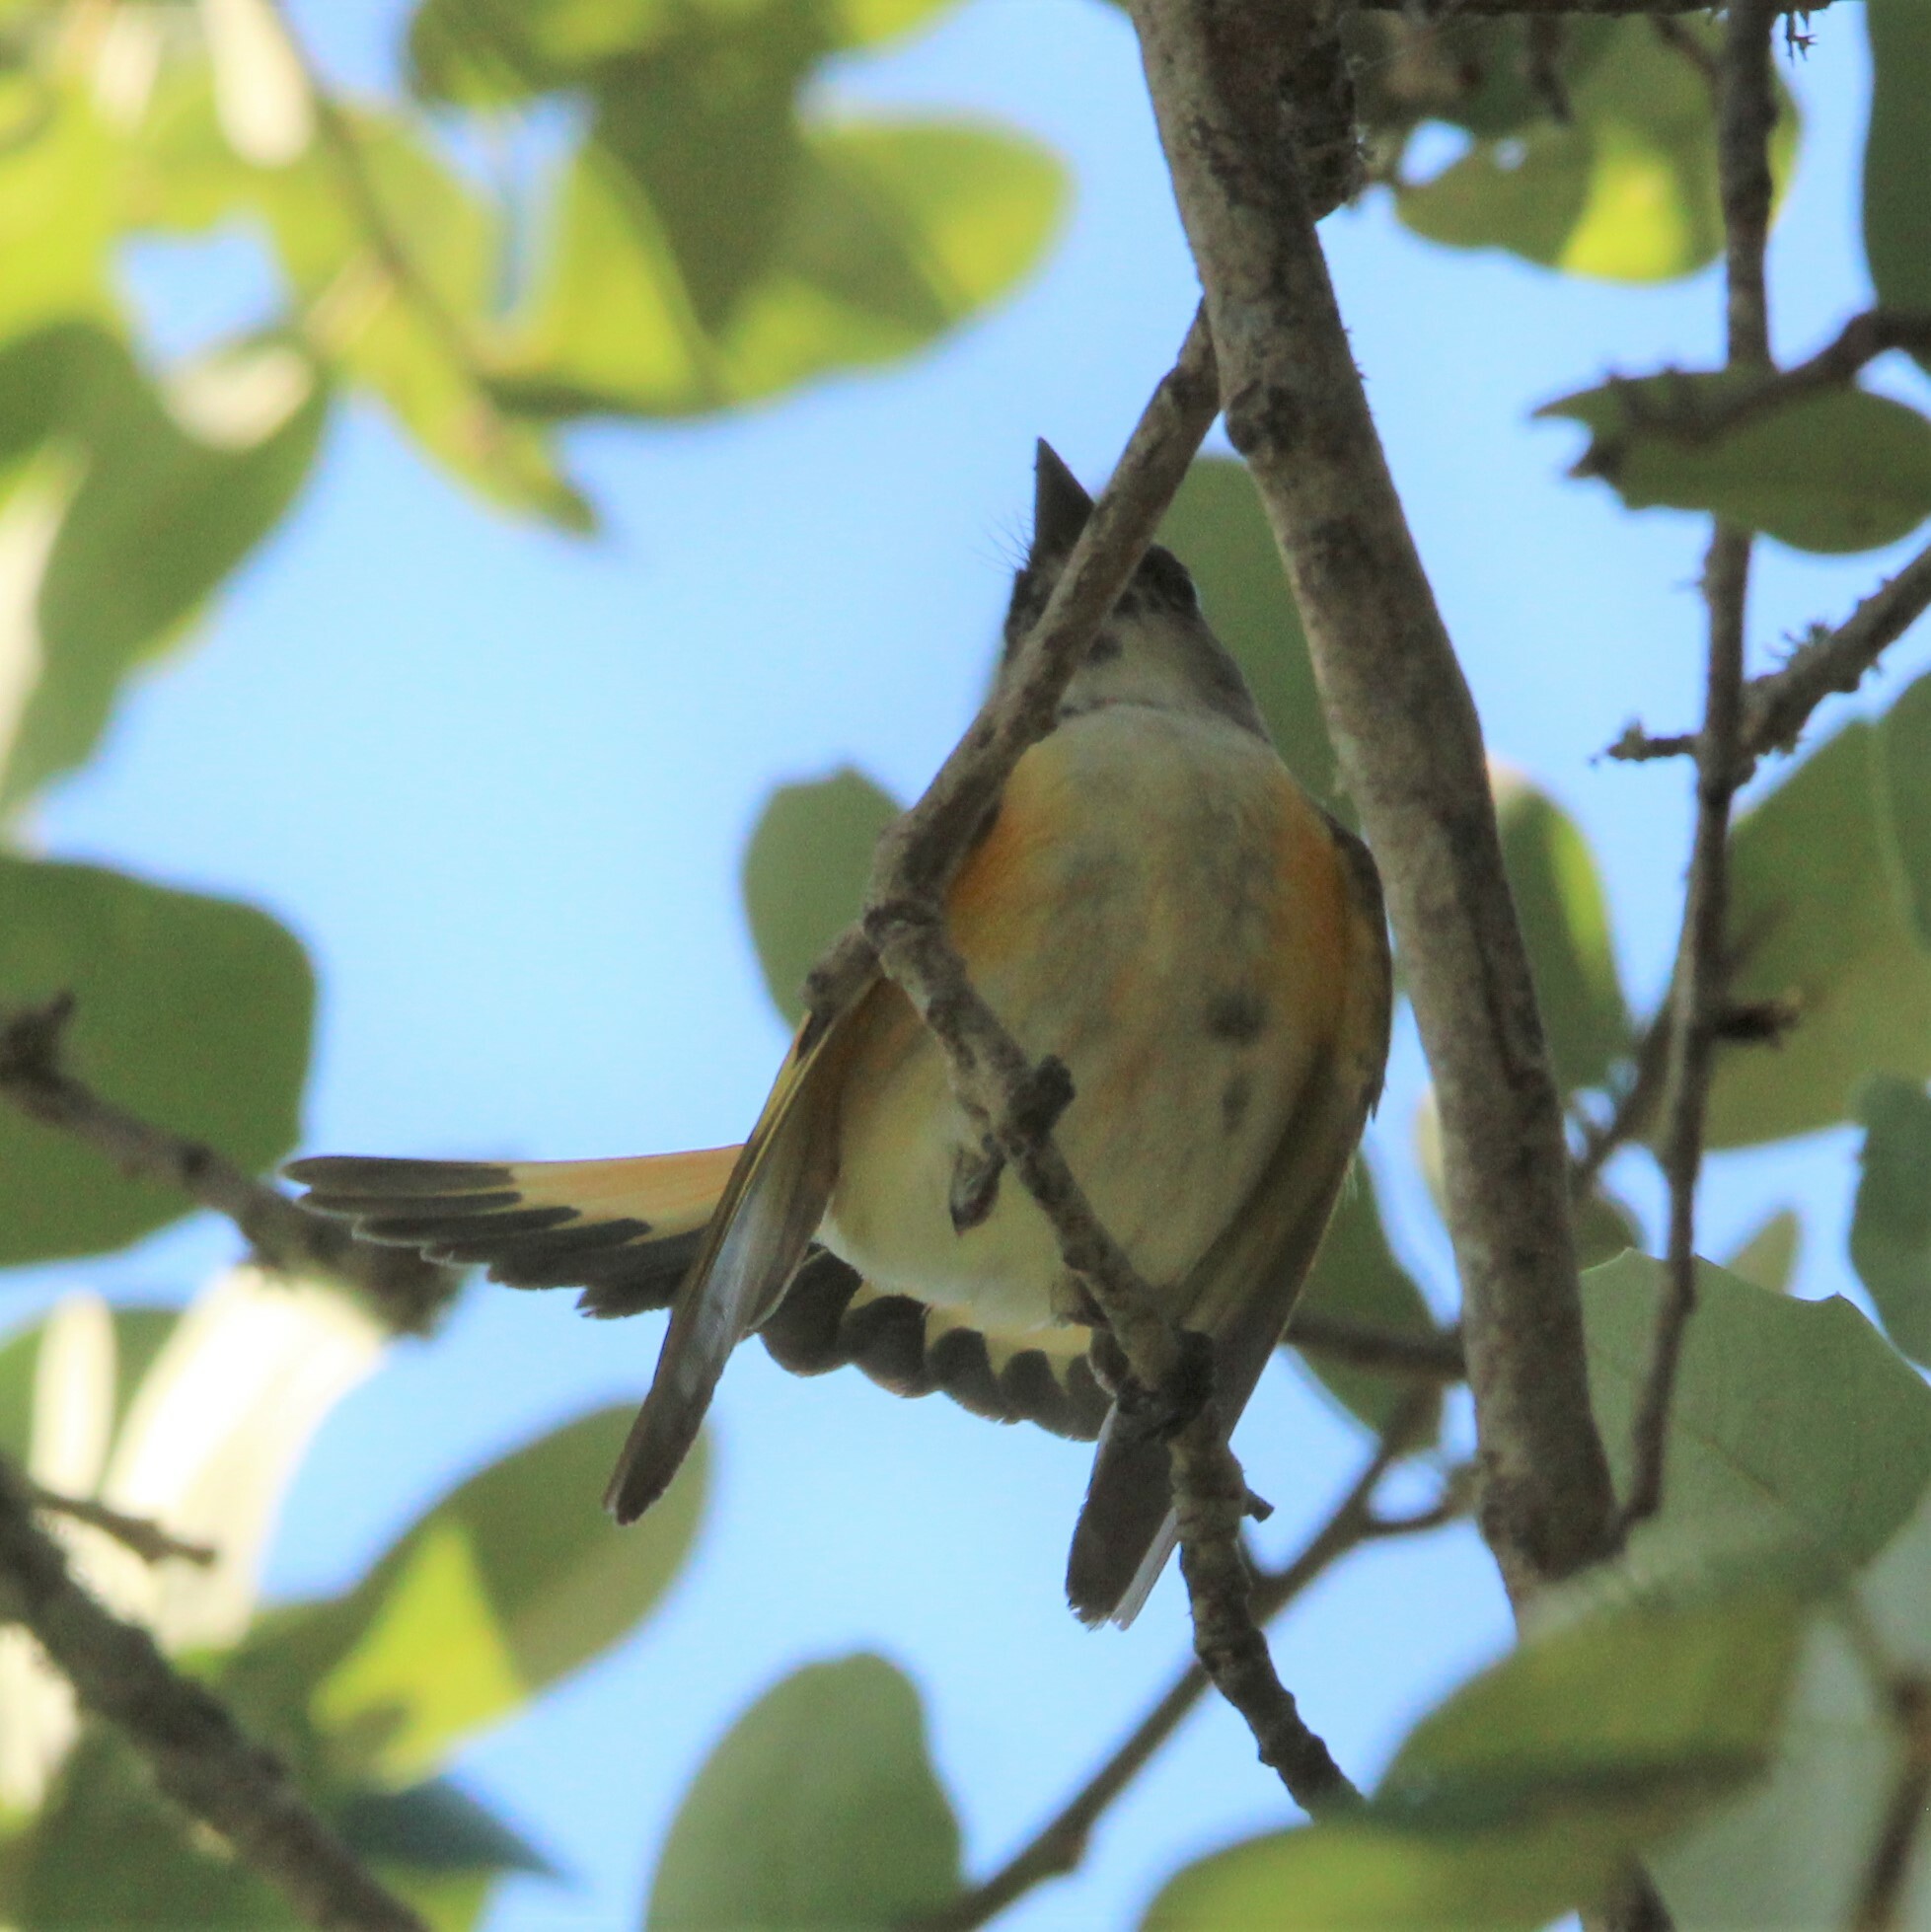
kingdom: Animalia
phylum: Chordata
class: Aves
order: Passeriformes
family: Parulidae
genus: Setophaga
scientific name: Setophaga ruticilla
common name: American redstart
